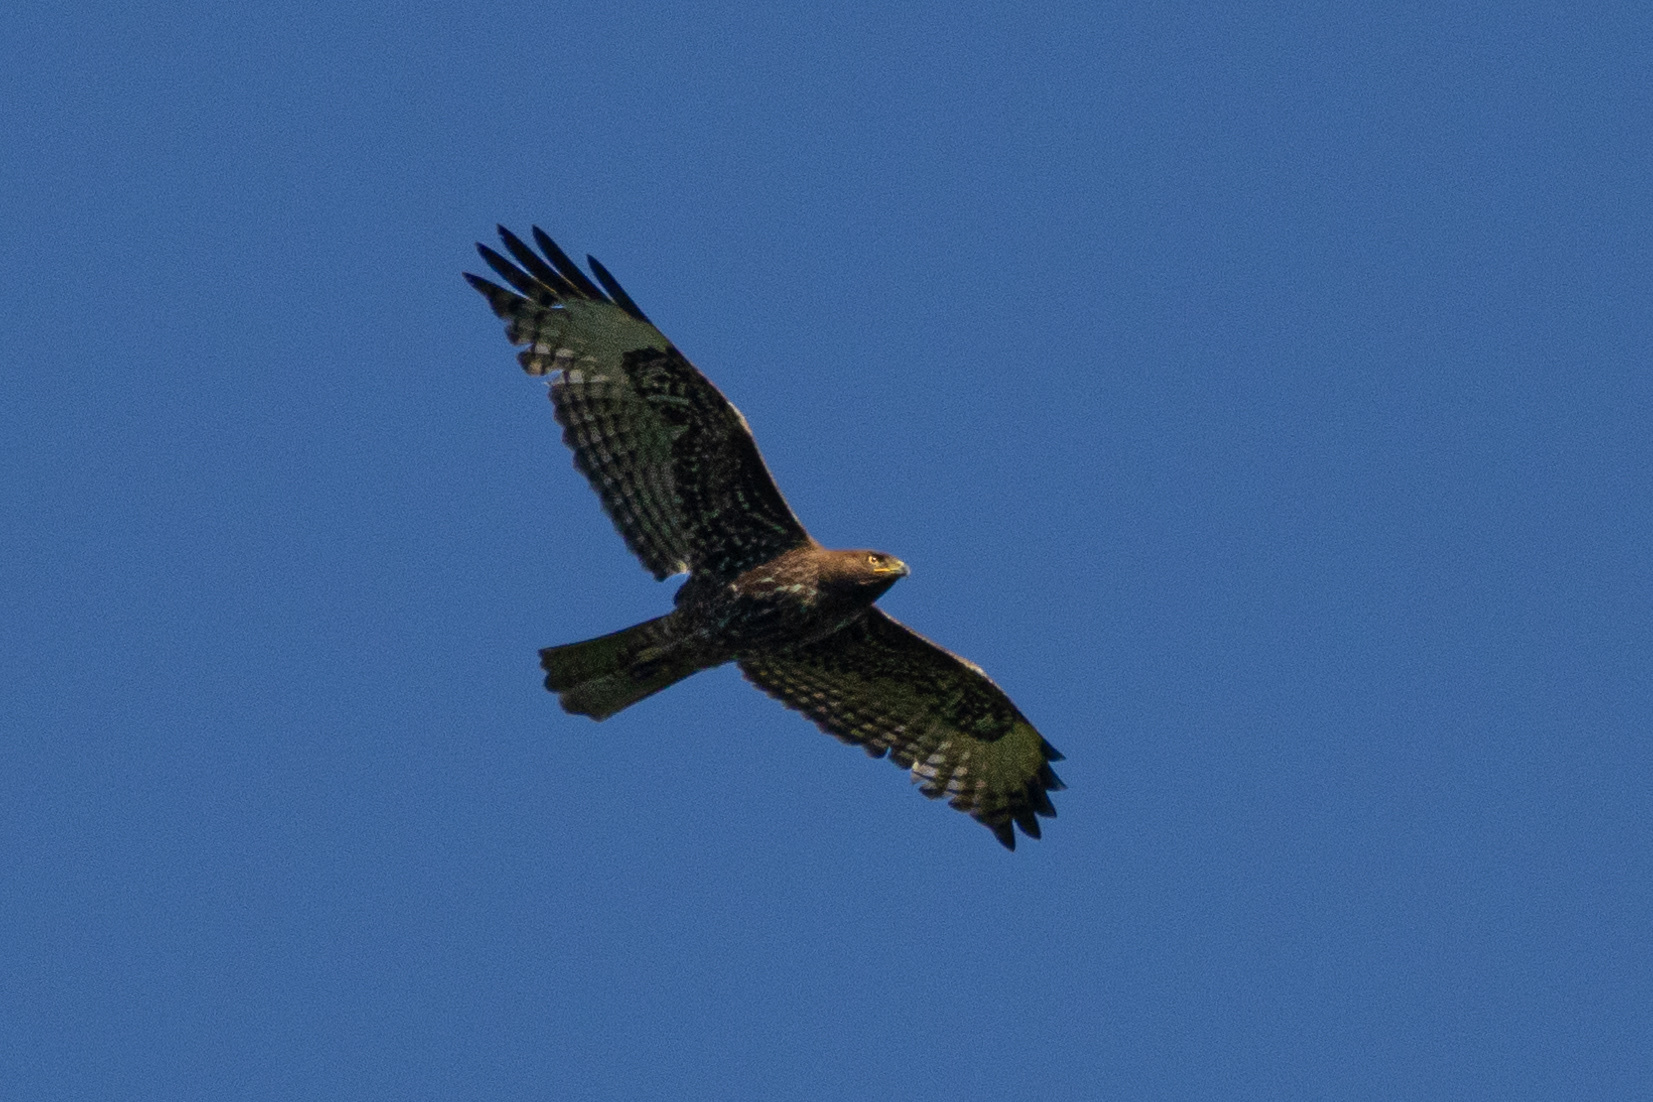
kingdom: Animalia
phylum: Chordata
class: Aves
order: Accipitriformes
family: Accipitridae
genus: Buteo
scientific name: Buteo jamaicensis
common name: Red-tailed hawk
